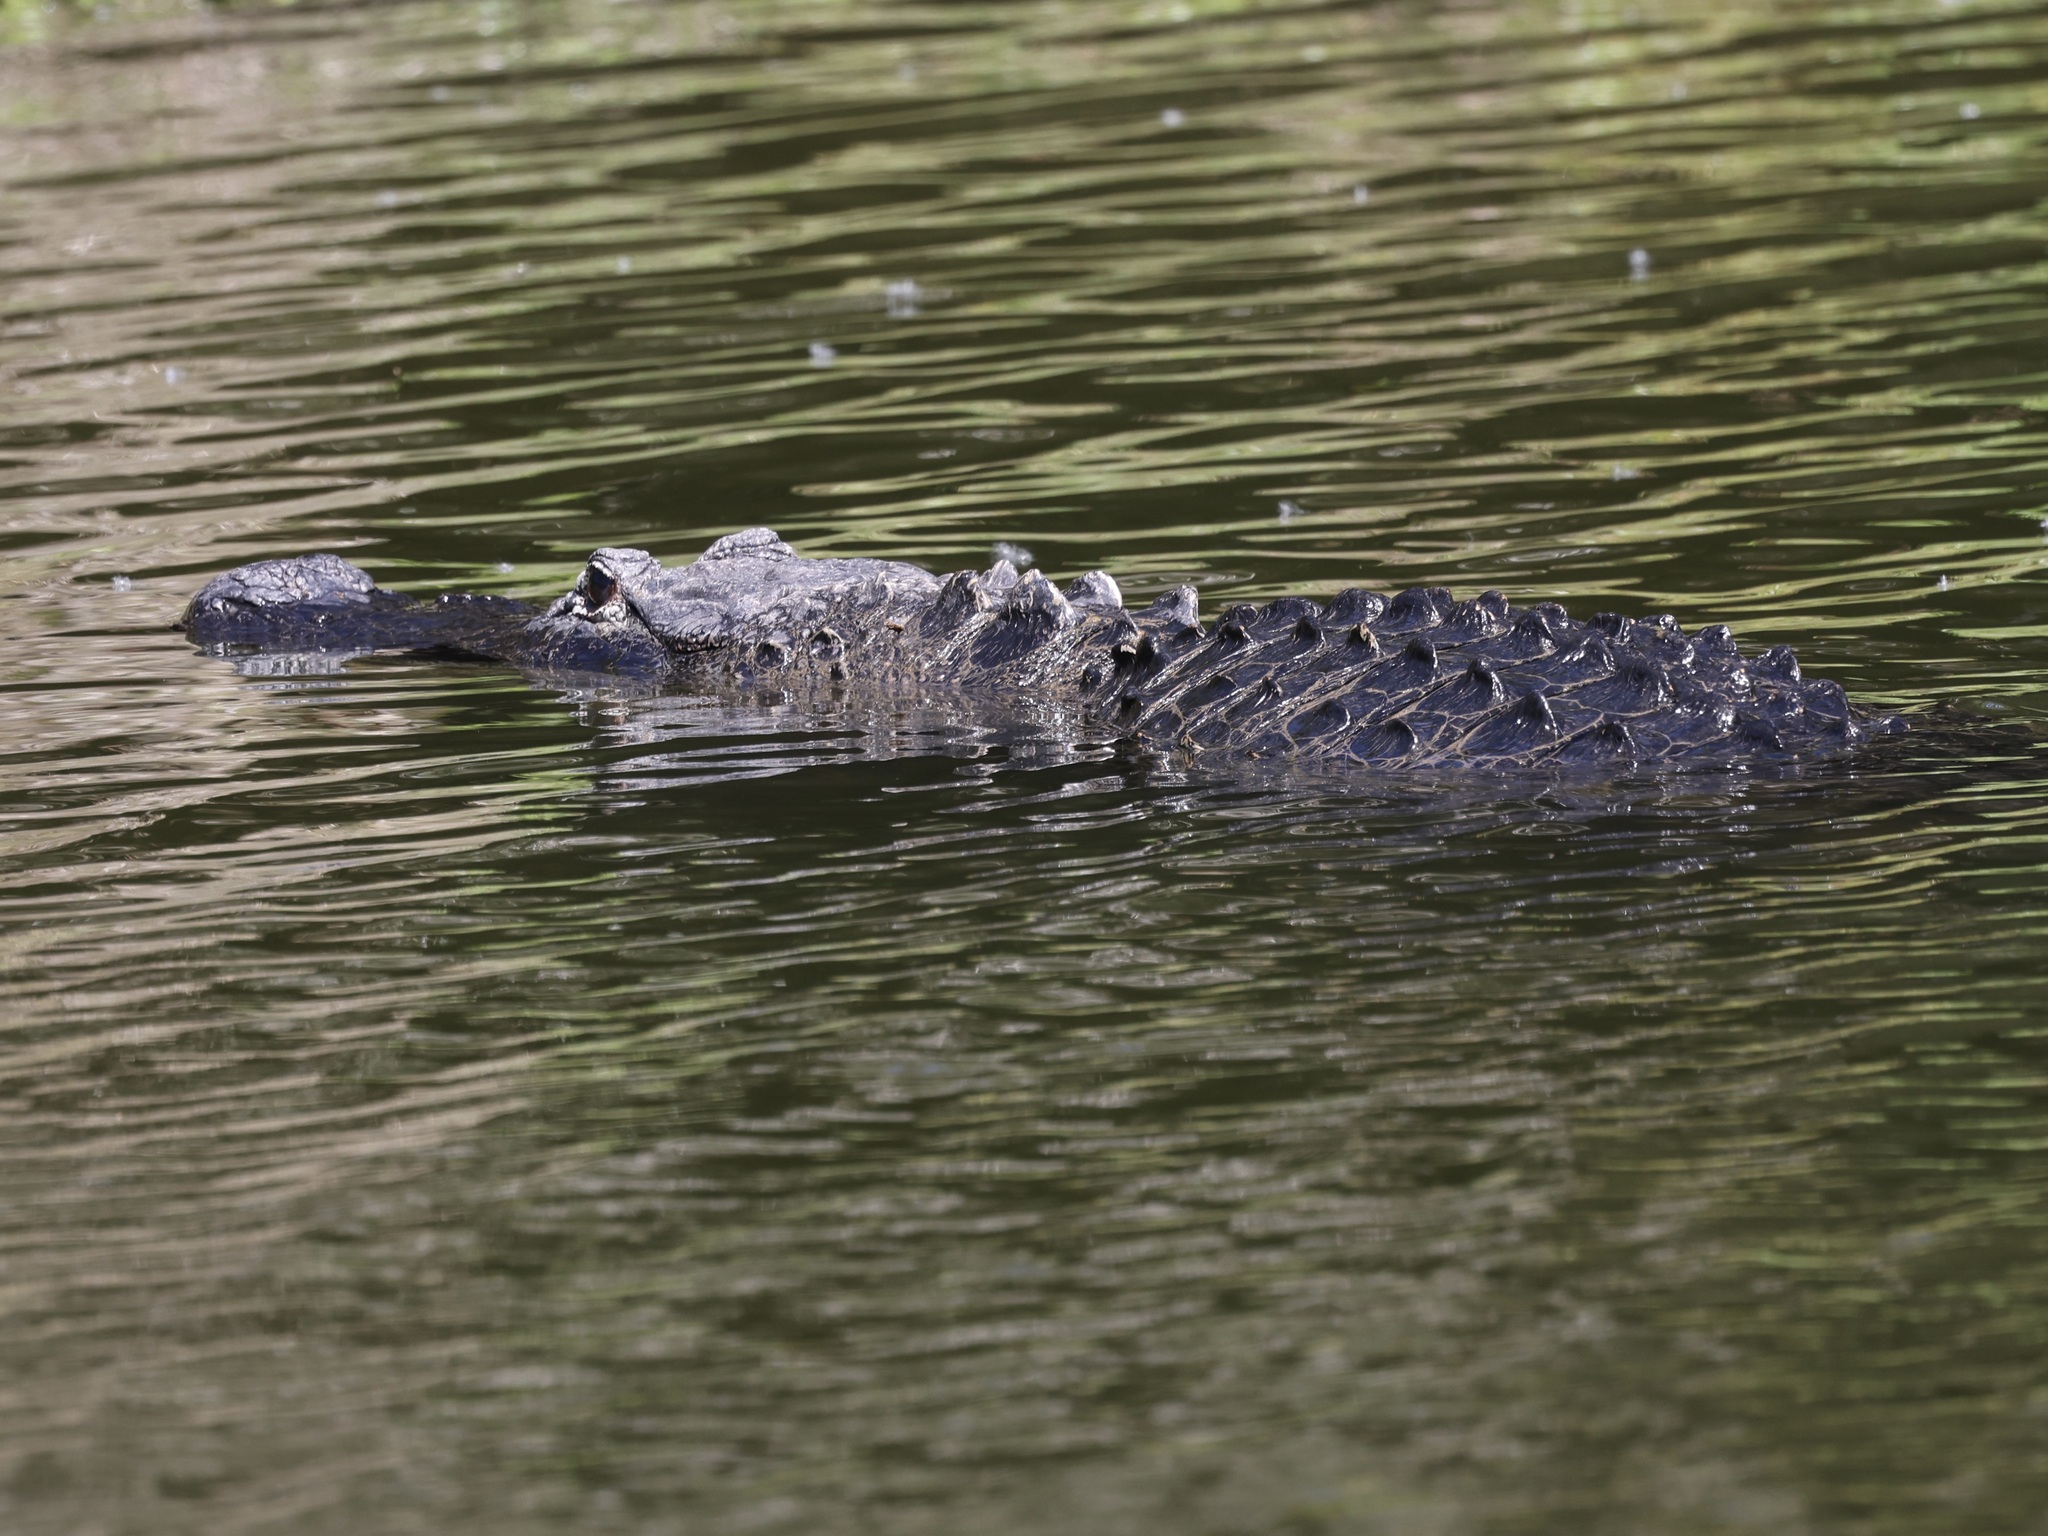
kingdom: Animalia
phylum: Chordata
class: Crocodylia
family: Alligatoridae
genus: Alligator
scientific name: Alligator mississippiensis
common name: American alligator
